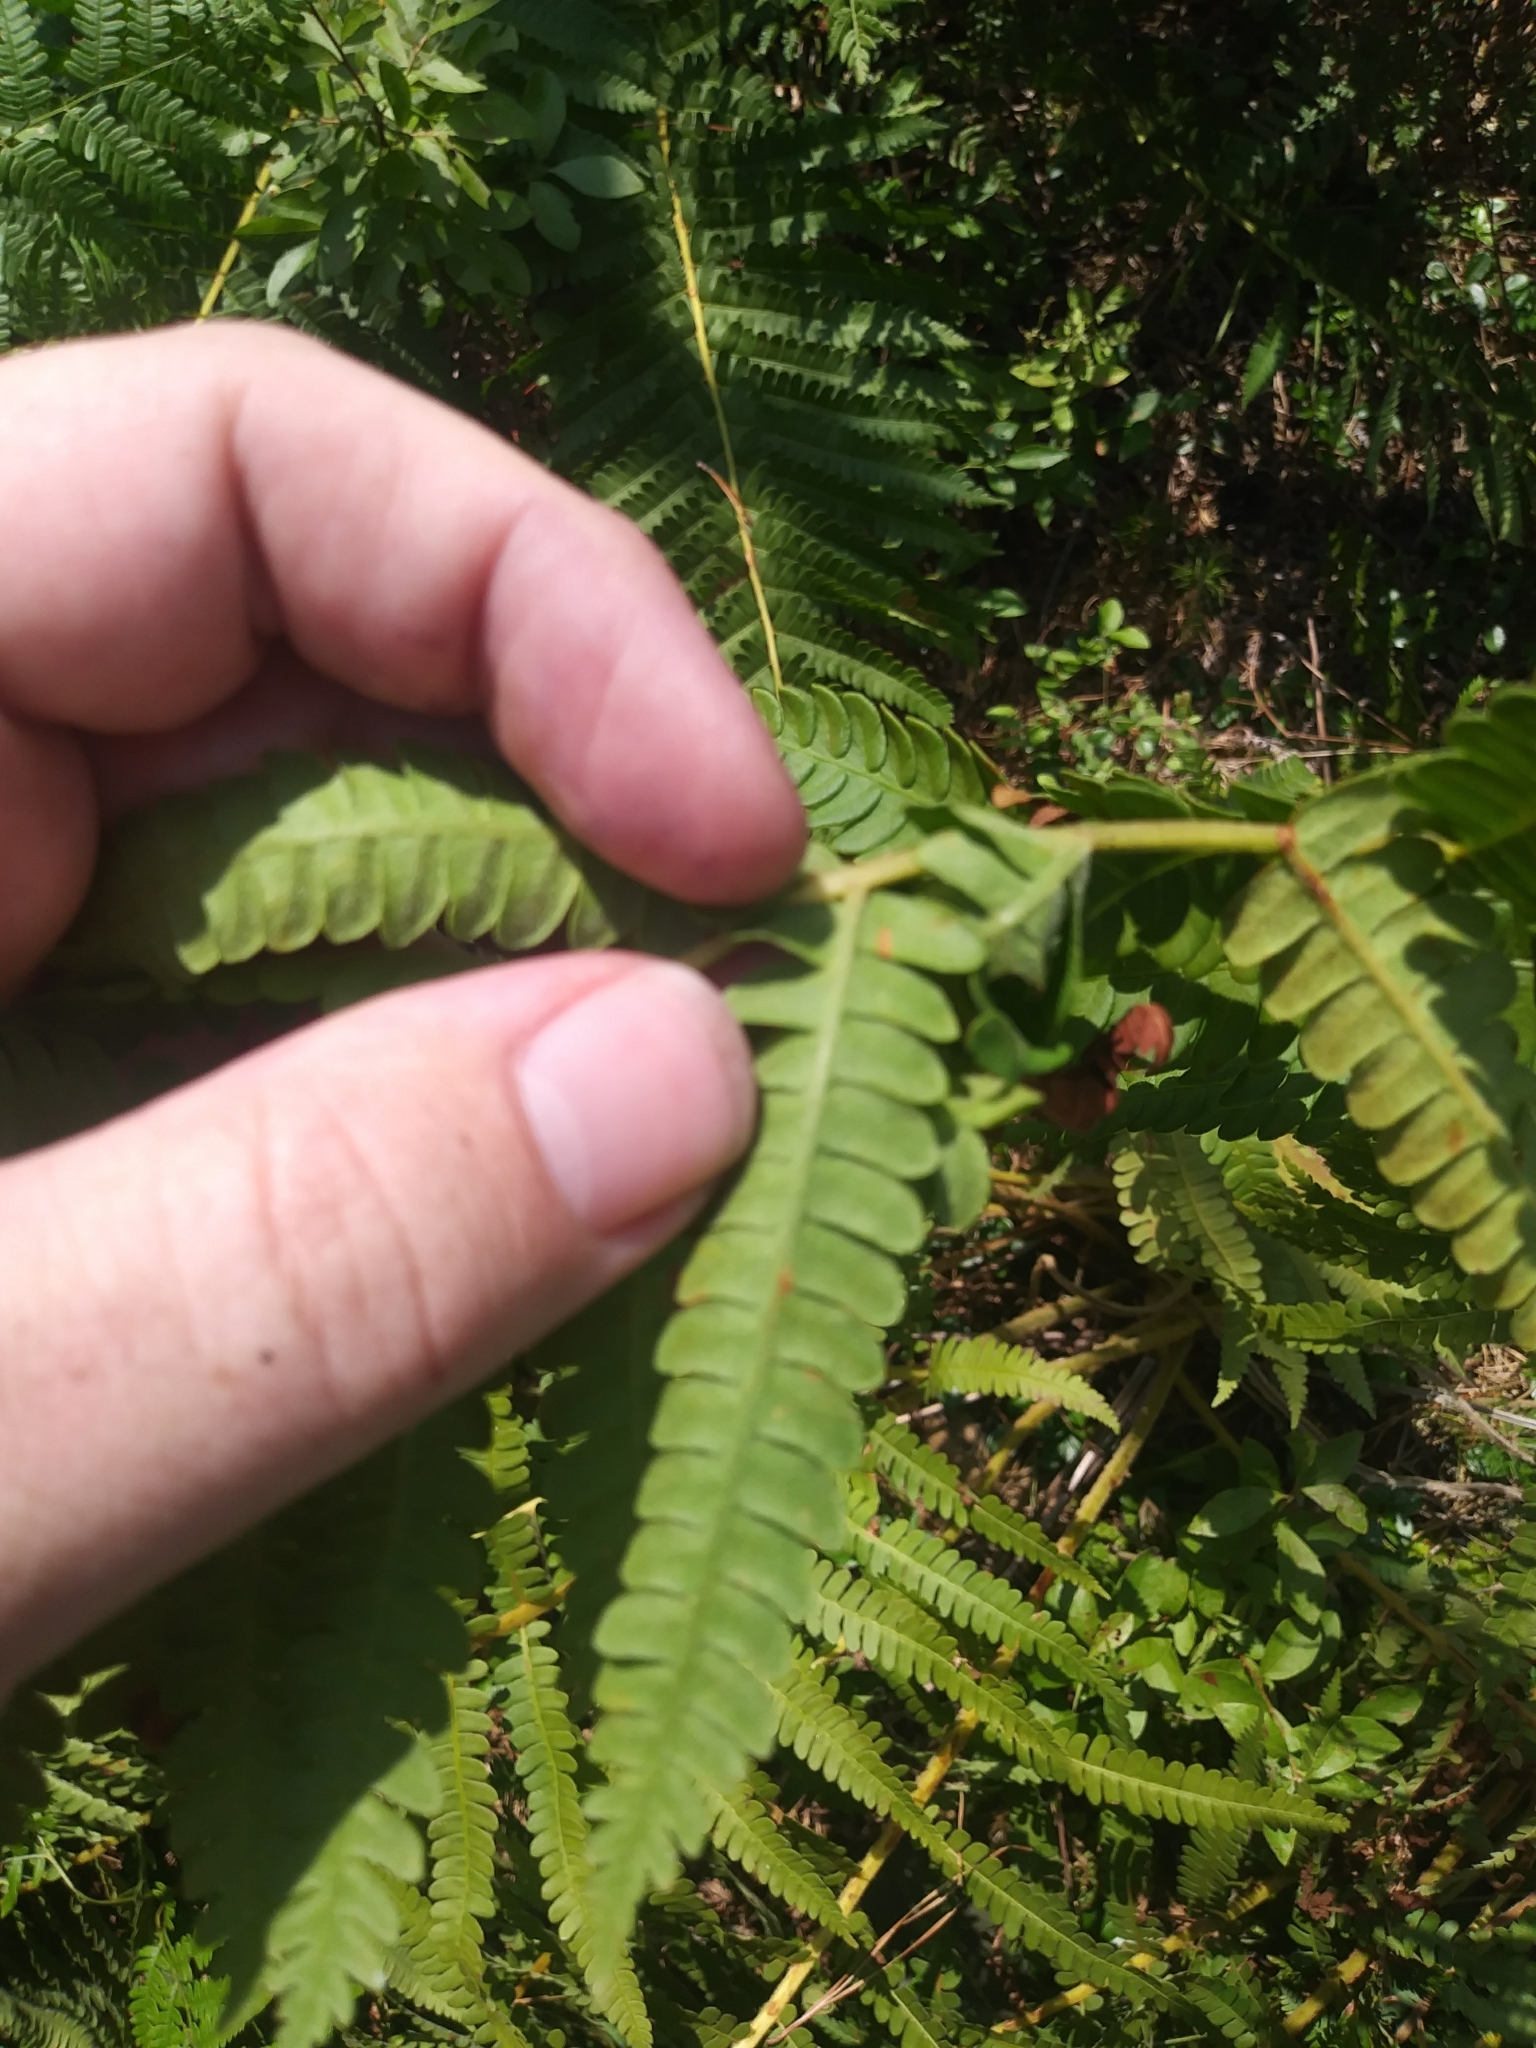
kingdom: Plantae
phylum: Tracheophyta
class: Polypodiopsida
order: Osmundales
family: Osmundaceae
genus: Osmundastrum
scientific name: Osmundastrum cinnamomeum
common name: Cinnamon fern
